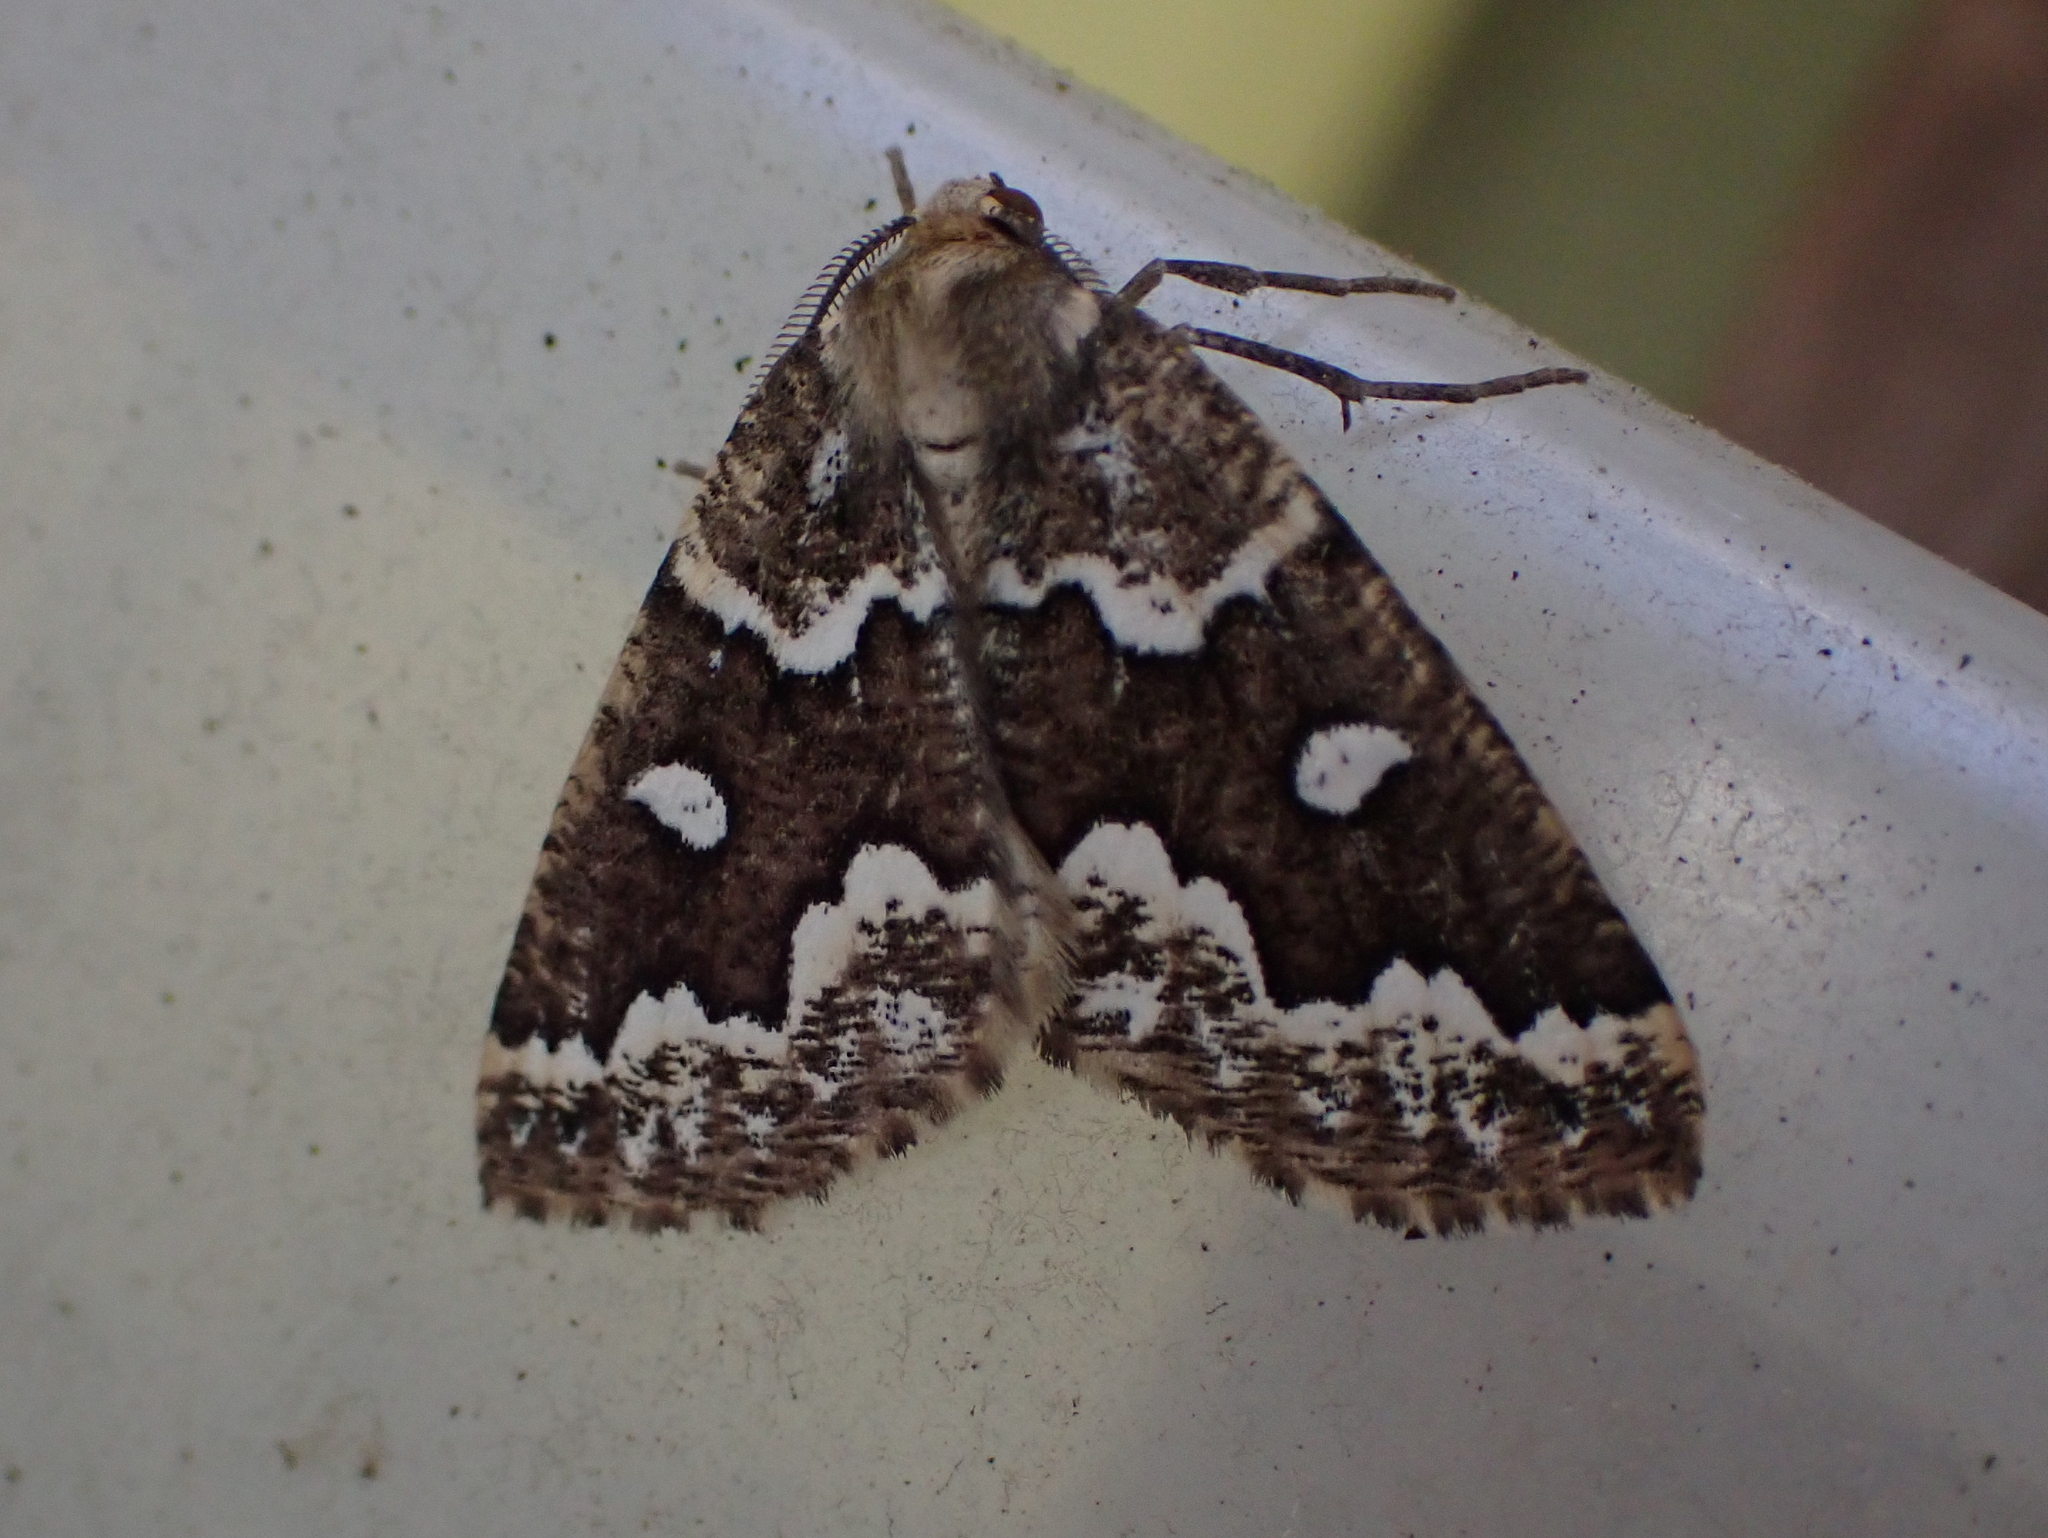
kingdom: Animalia
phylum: Arthropoda
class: Insecta
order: Lepidoptera
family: Geometridae
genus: Caripeta
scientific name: Caripeta divisata
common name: Gray spruce looper
